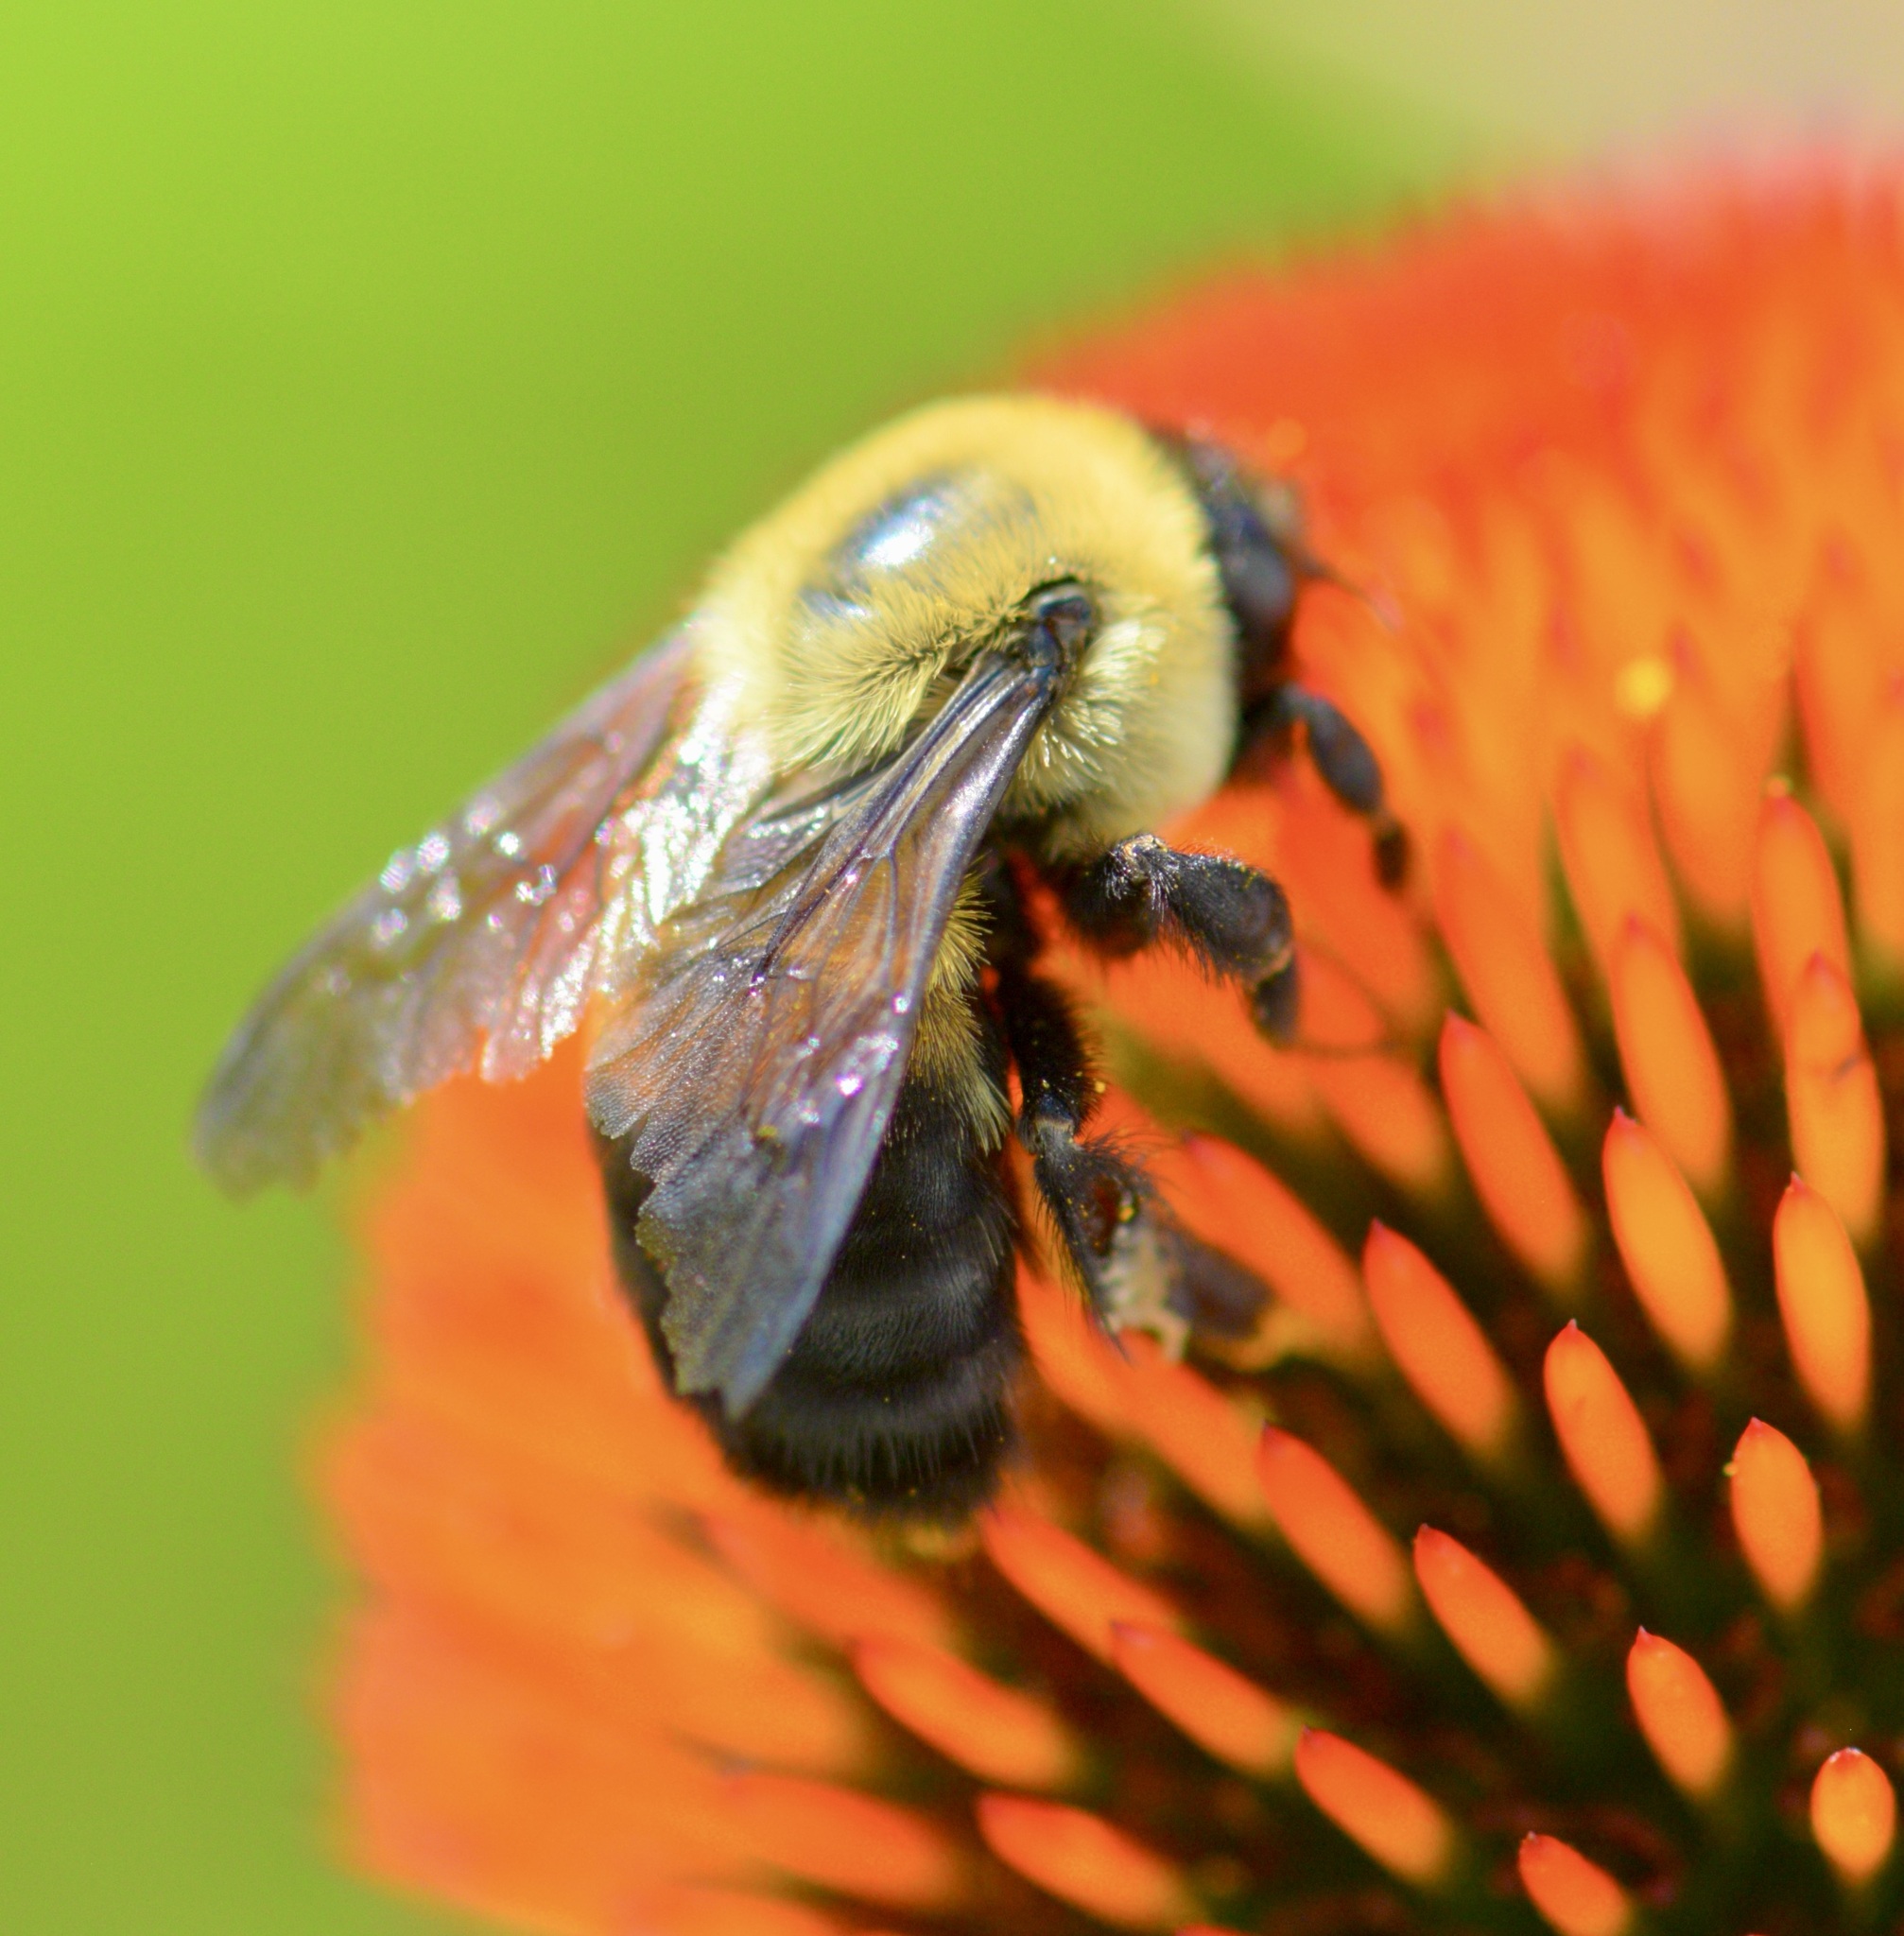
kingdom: Animalia
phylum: Arthropoda
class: Insecta
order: Hymenoptera
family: Apidae
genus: Bombus
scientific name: Bombus griseocollis
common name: Brown-belted bumble bee
